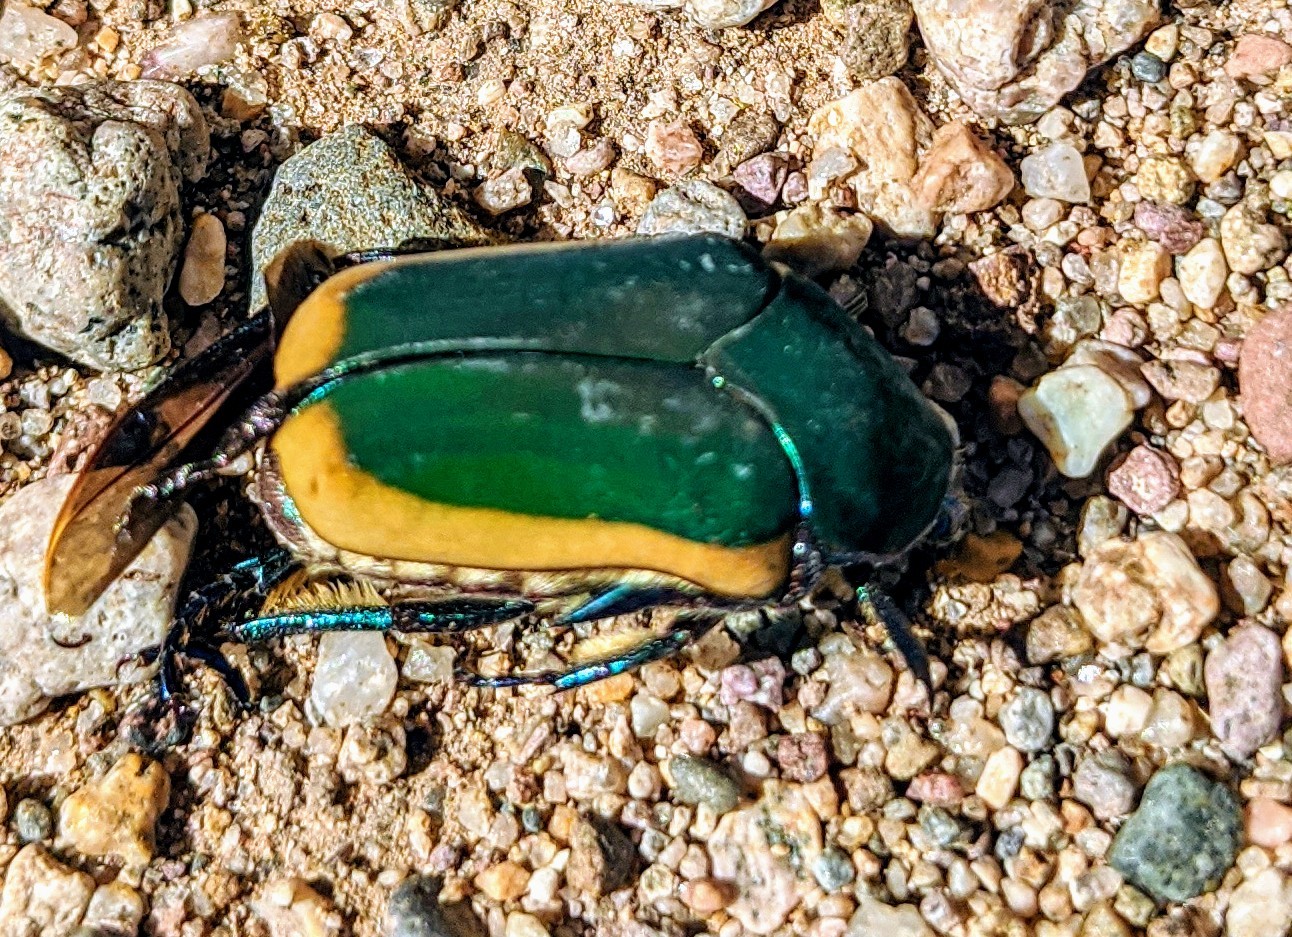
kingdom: Animalia
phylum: Arthropoda
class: Insecta
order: Coleoptera
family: Scarabaeidae
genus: Cotinis
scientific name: Cotinis mutabilis
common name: Figeater beetle
